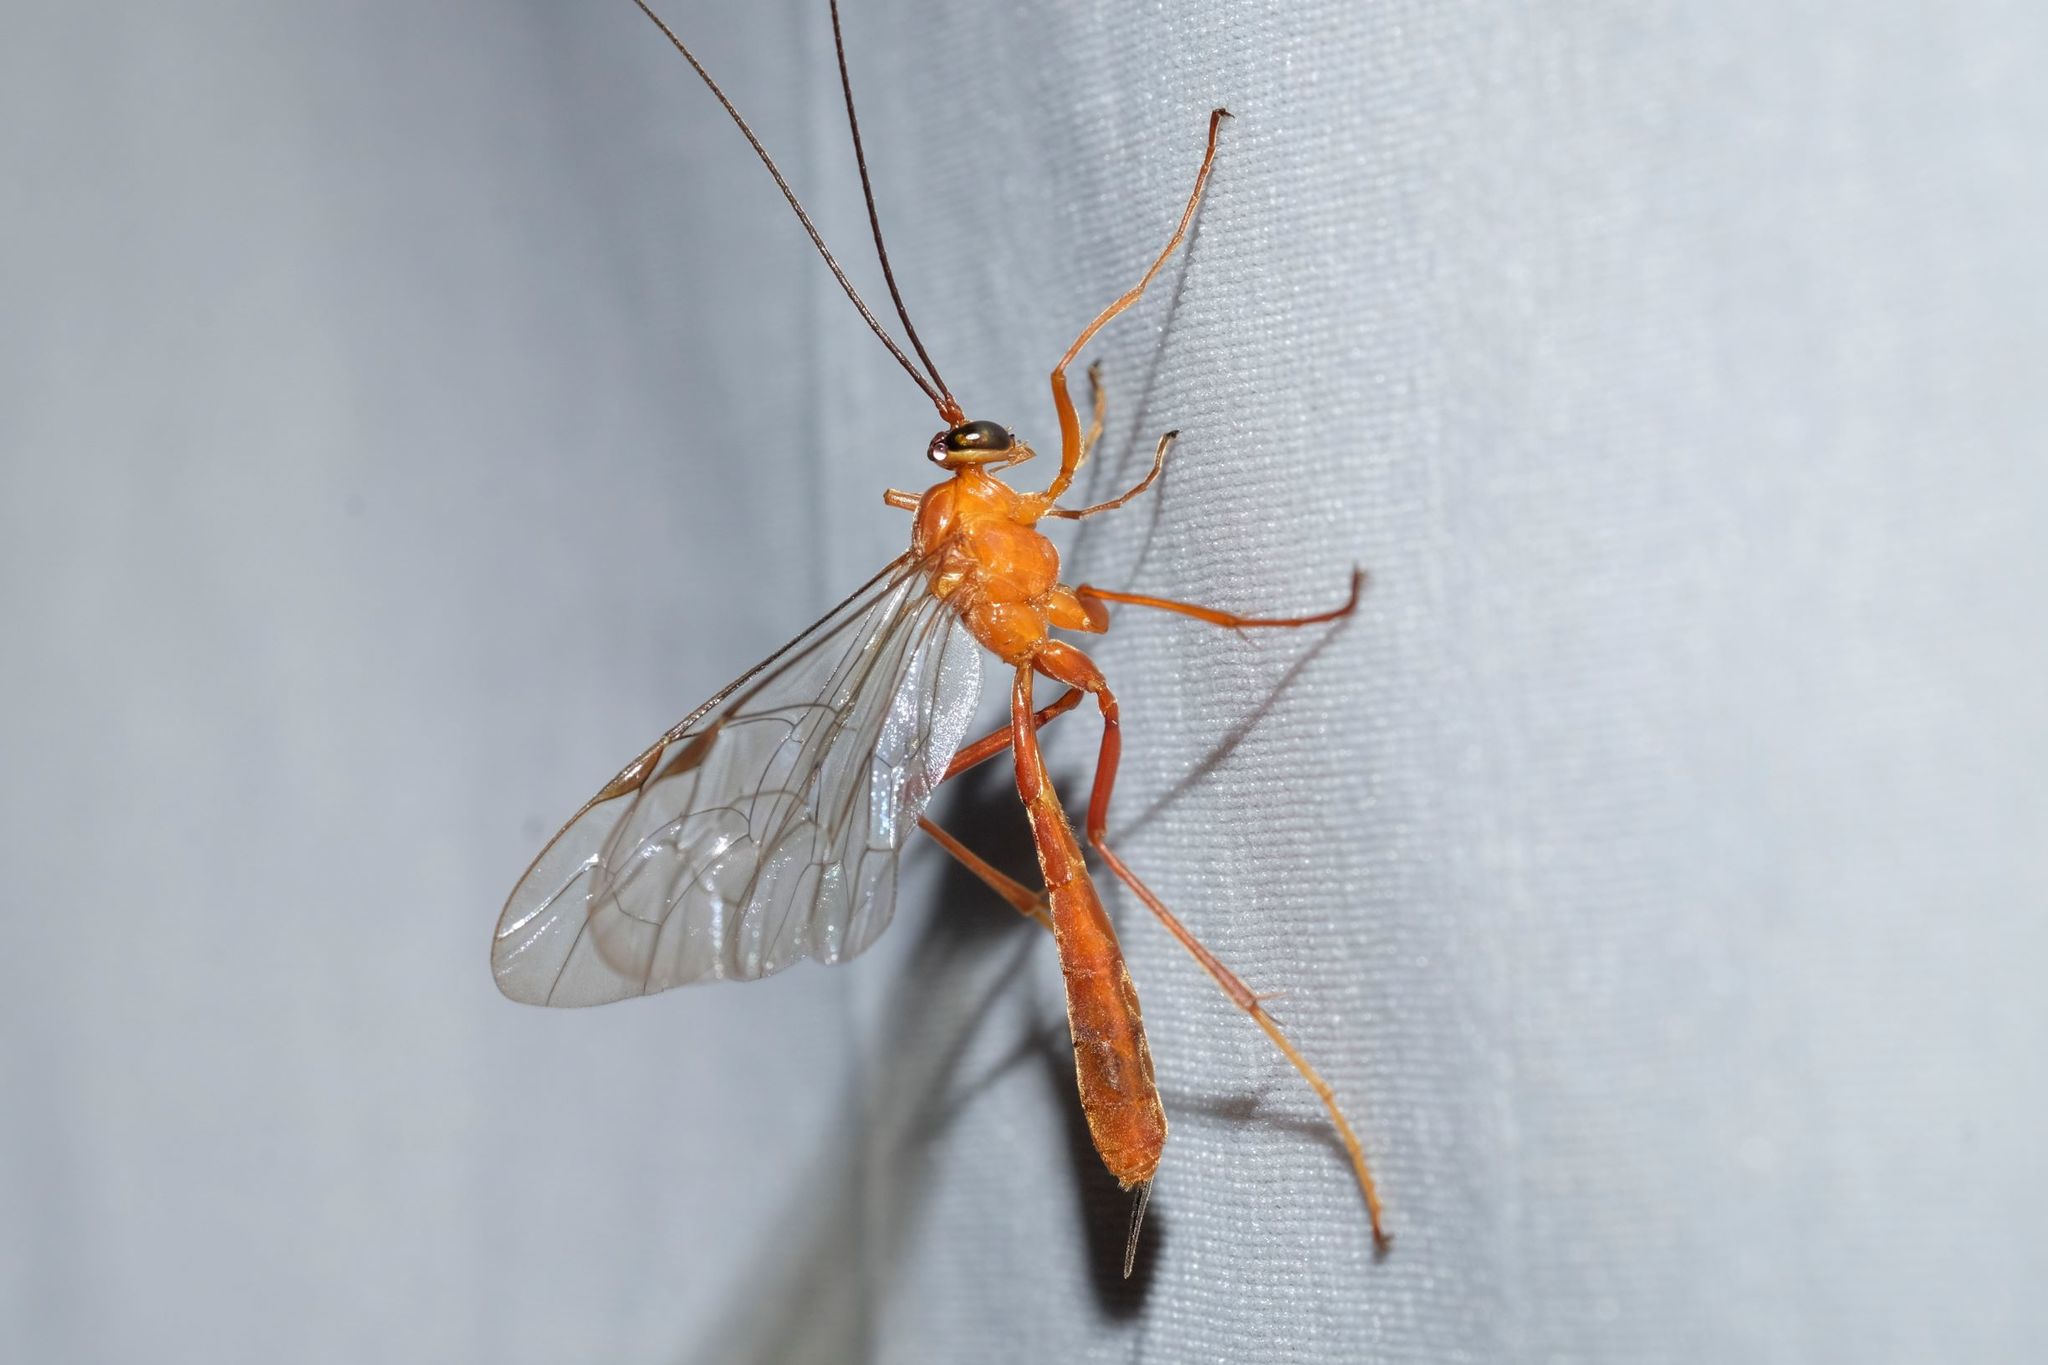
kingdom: Animalia
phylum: Arthropoda
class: Insecta
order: Hymenoptera
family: Ichneumonidae
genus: Netelia
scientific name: Netelia
